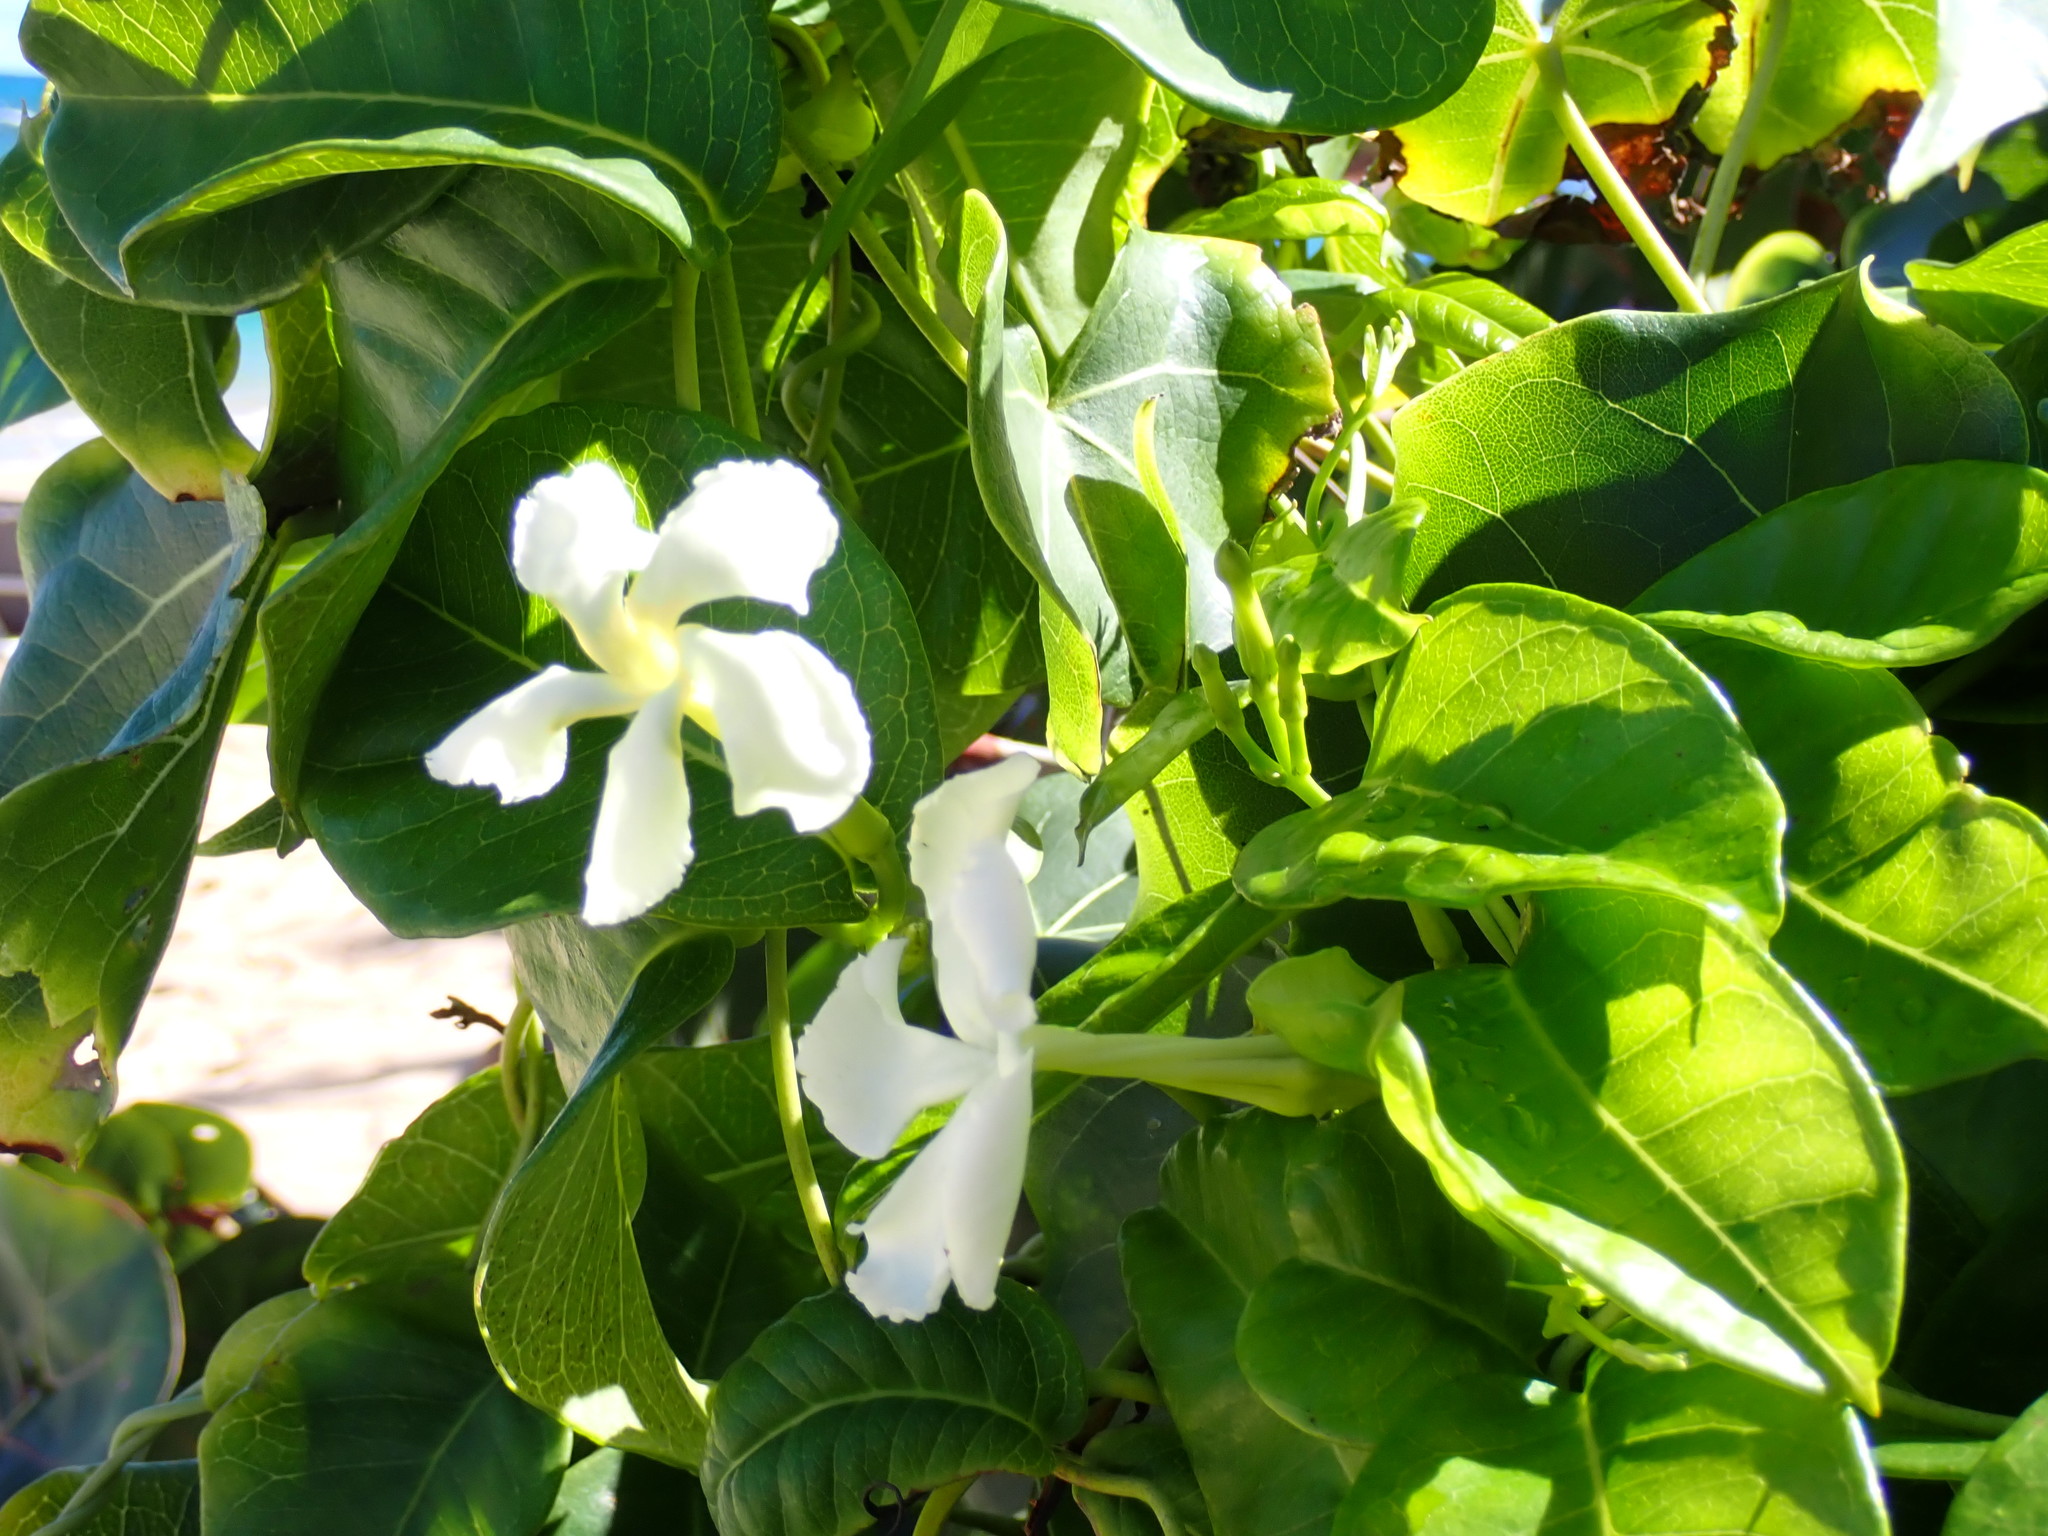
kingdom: Plantae
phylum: Tracheophyta
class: Magnoliopsida
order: Gentianales
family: Apocynaceae
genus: Echites
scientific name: Echites umbellatus
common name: Devil's potato
